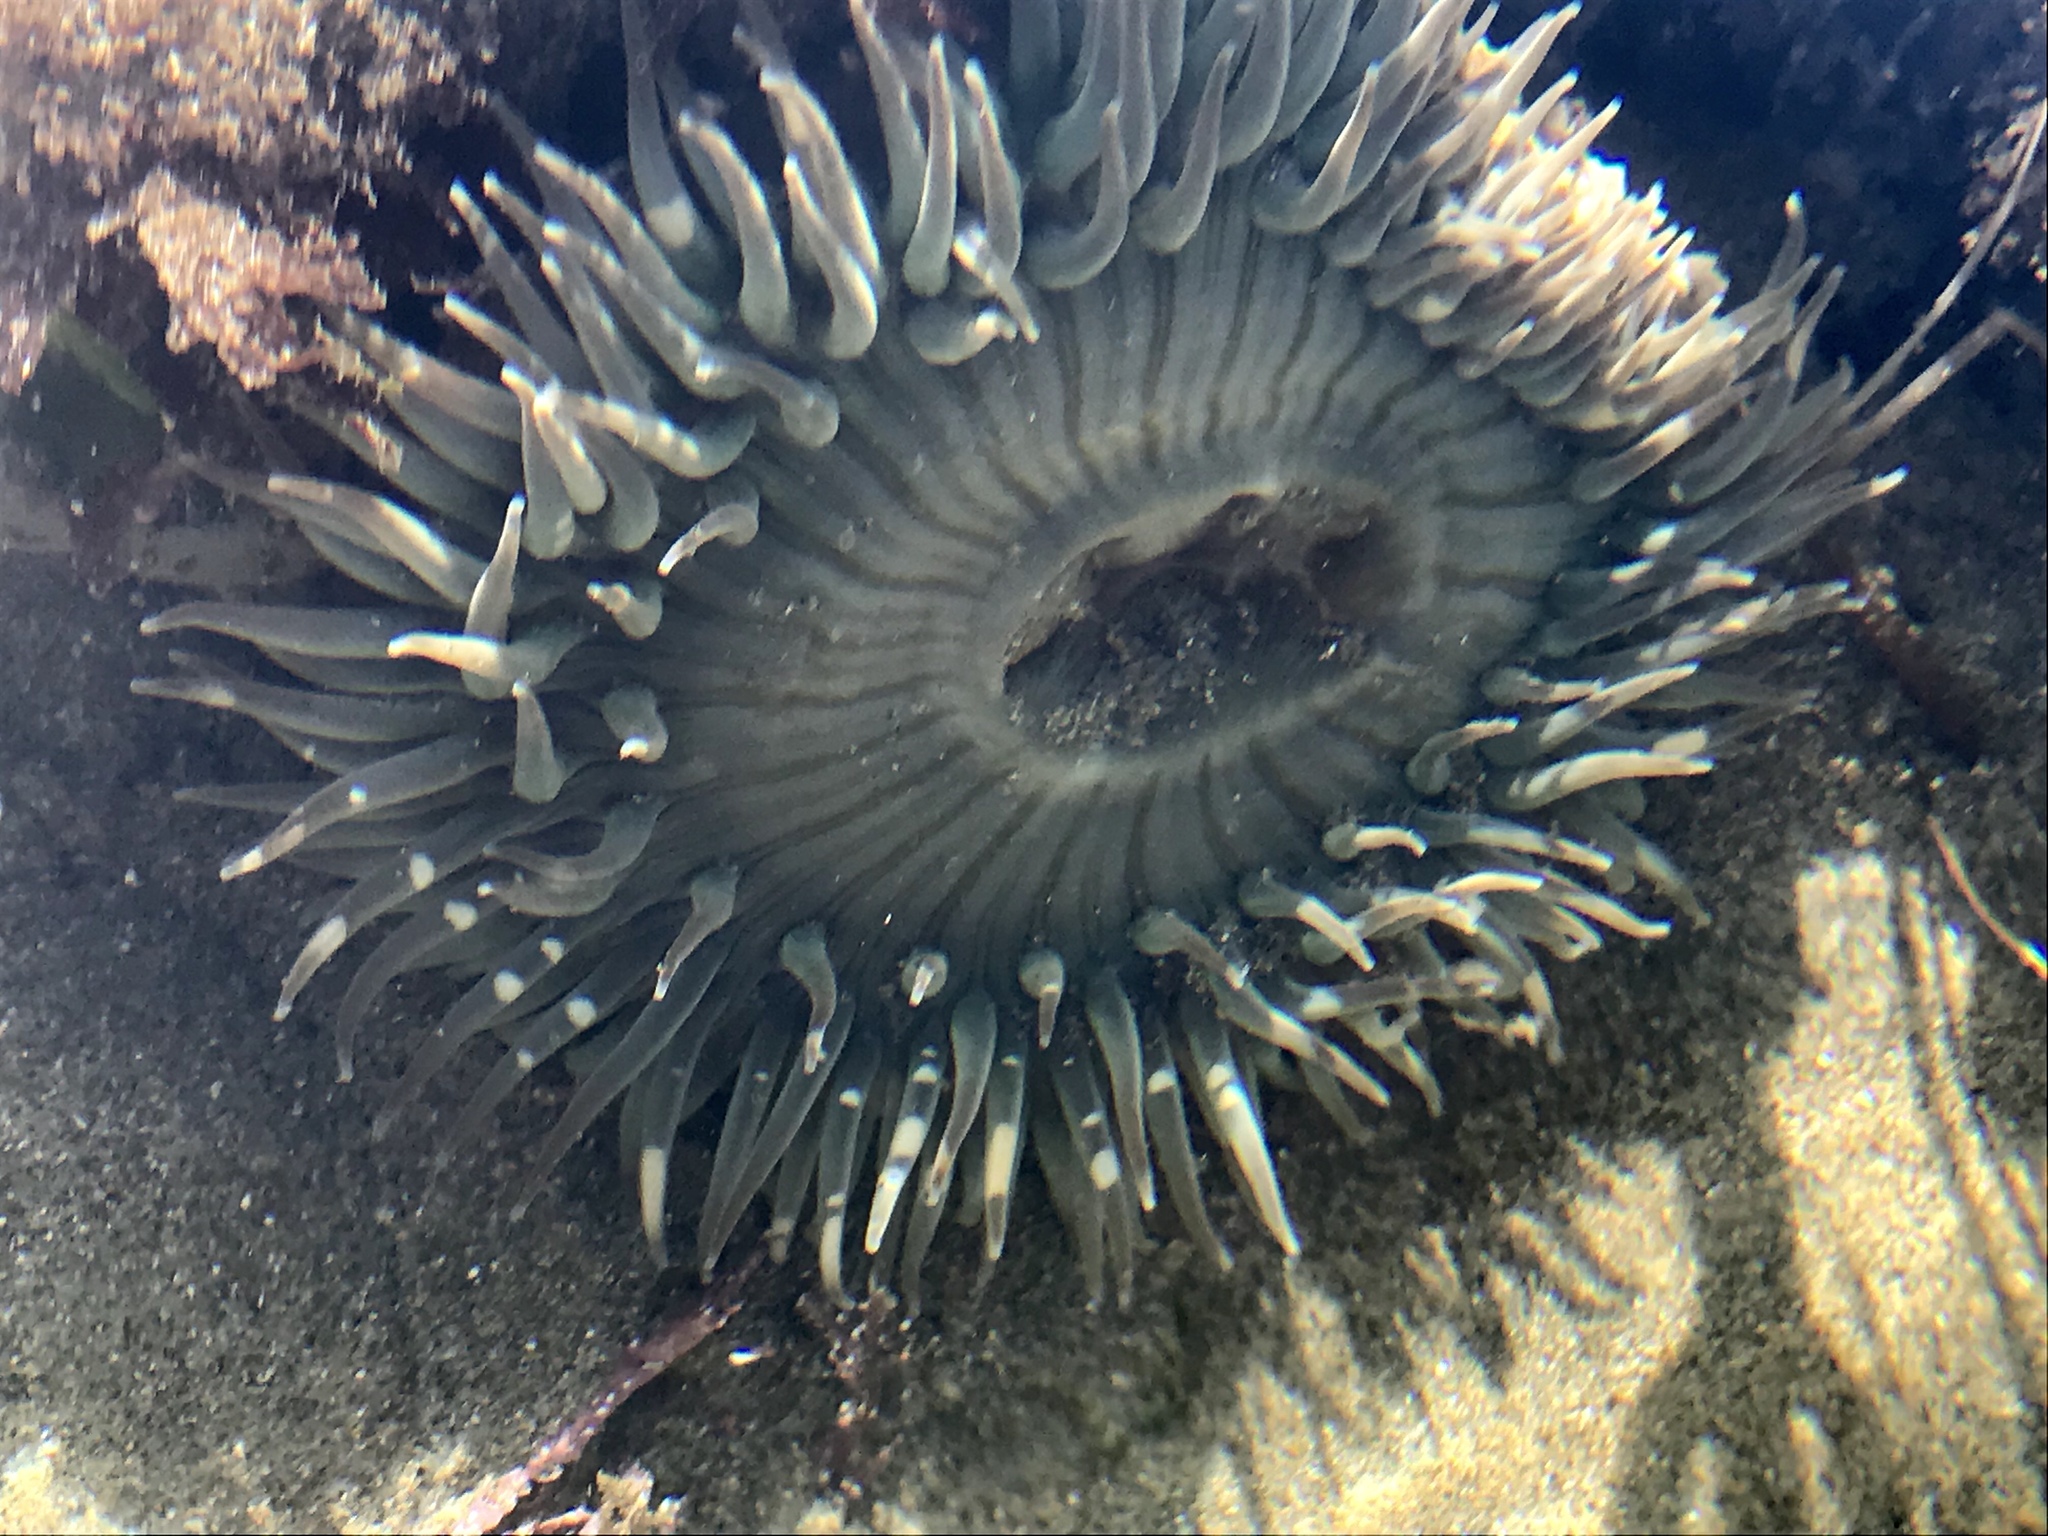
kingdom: Animalia
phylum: Cnidaria
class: Anthozoa
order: Actiniaria
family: Actiniidae
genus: Anthopleura
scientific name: Anthopleura sola
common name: Sun anemone
